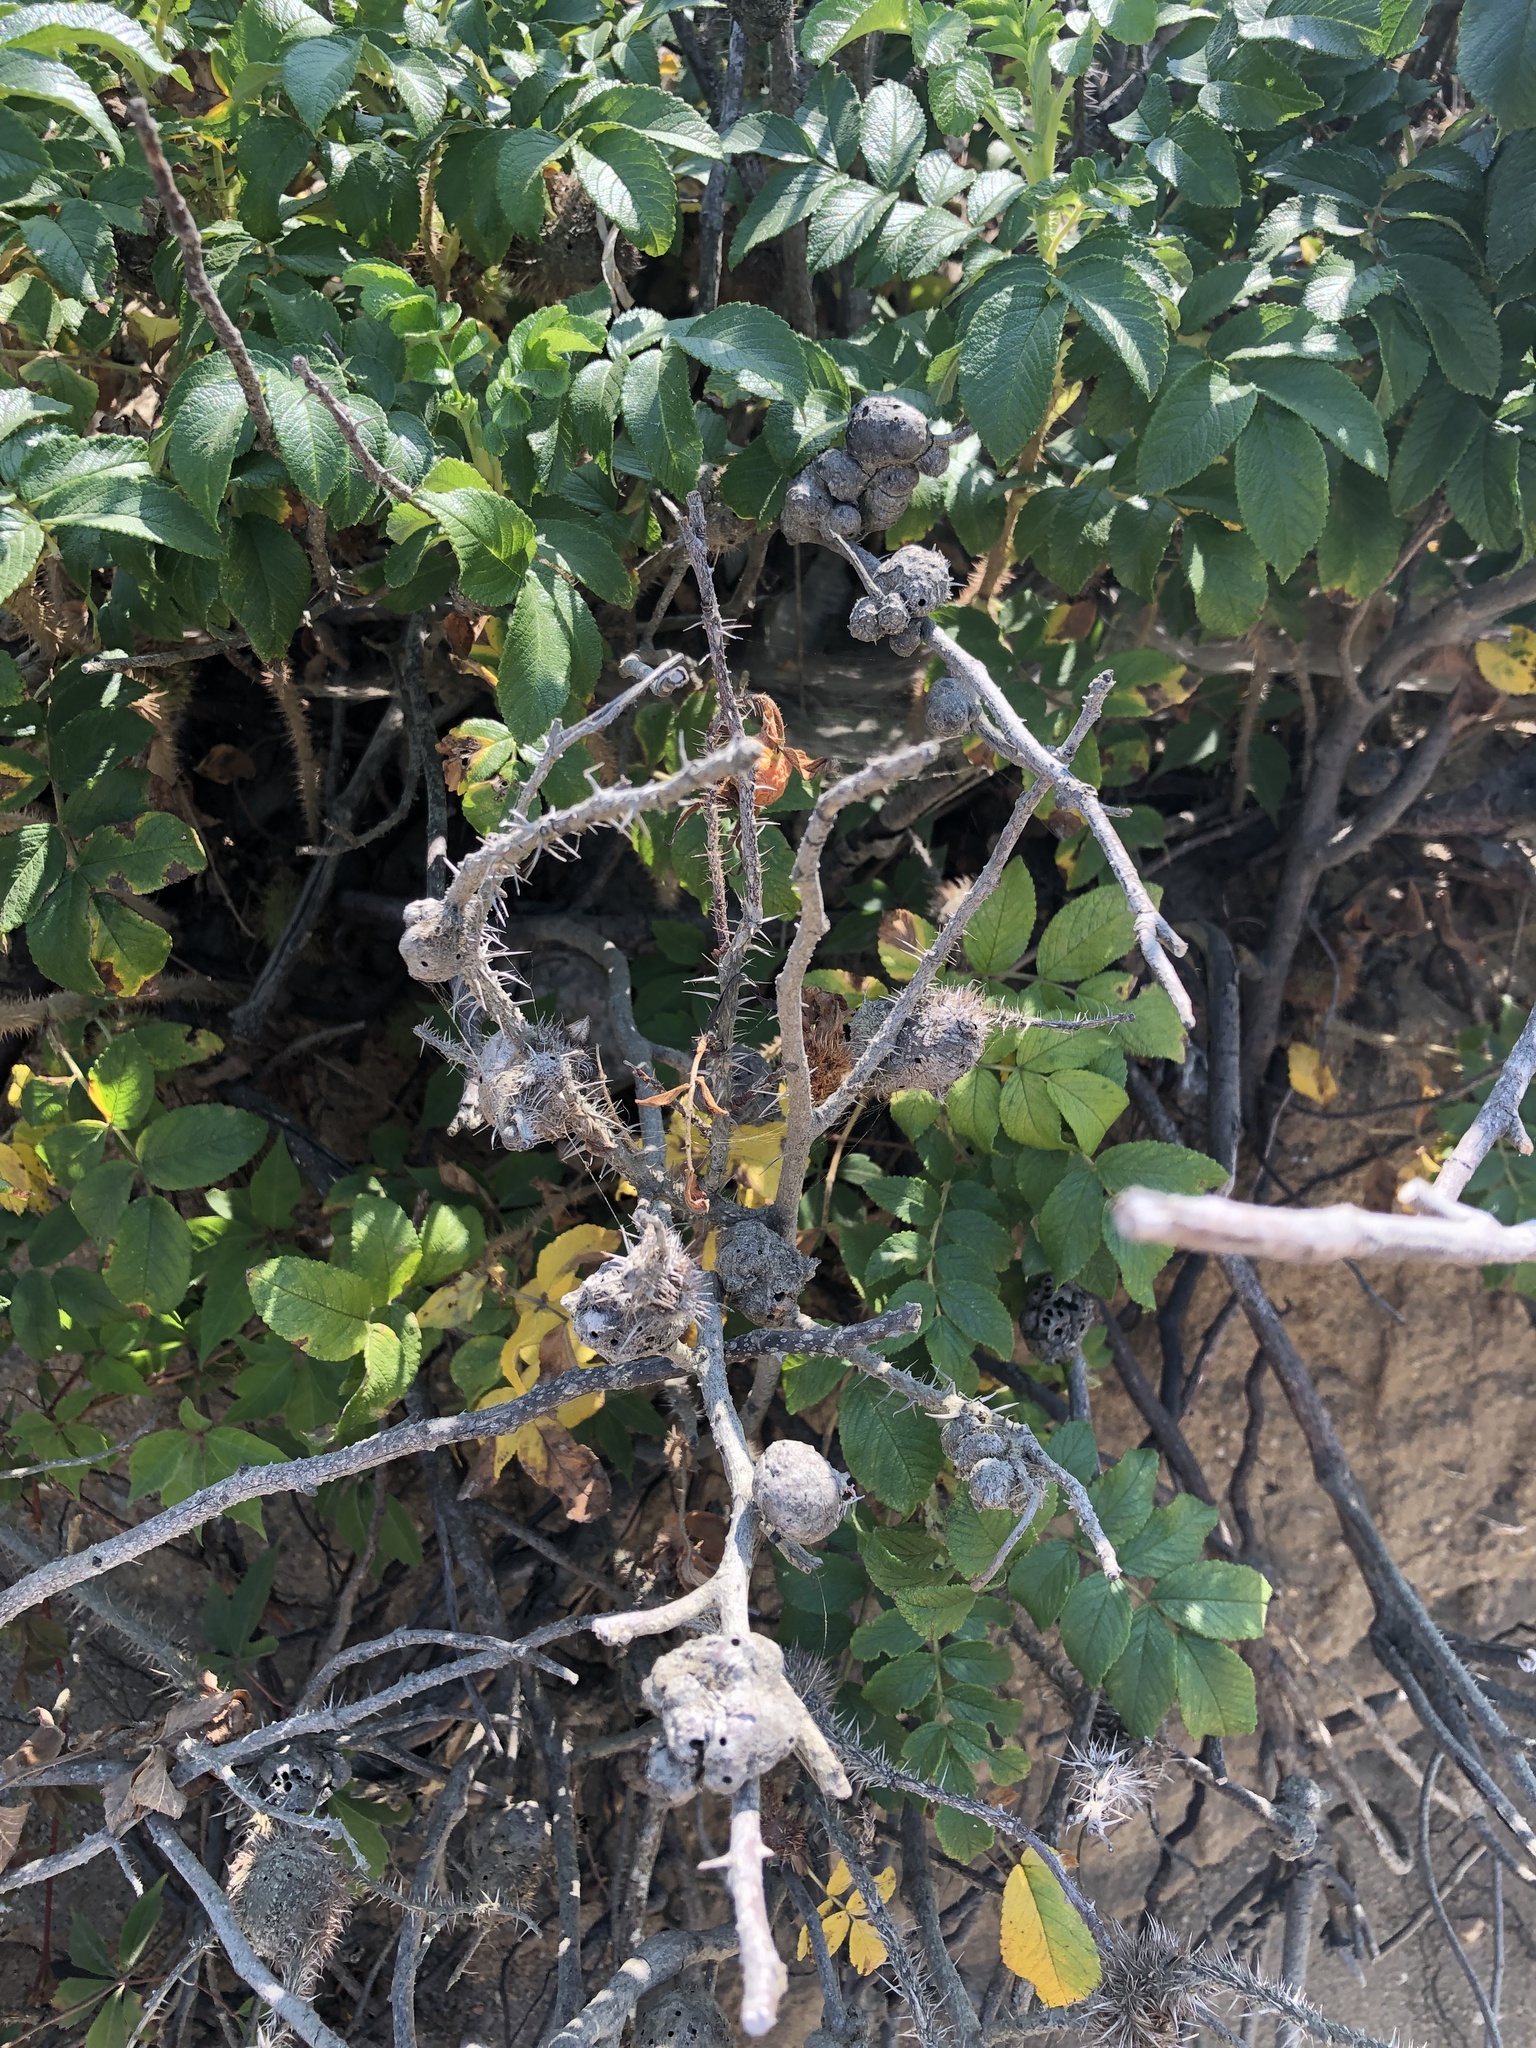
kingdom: Animalia
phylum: Arthropoda
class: Insecta
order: Hymenoptera
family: Cynipidae
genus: Diplolepis
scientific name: Diplolepis spinosa
